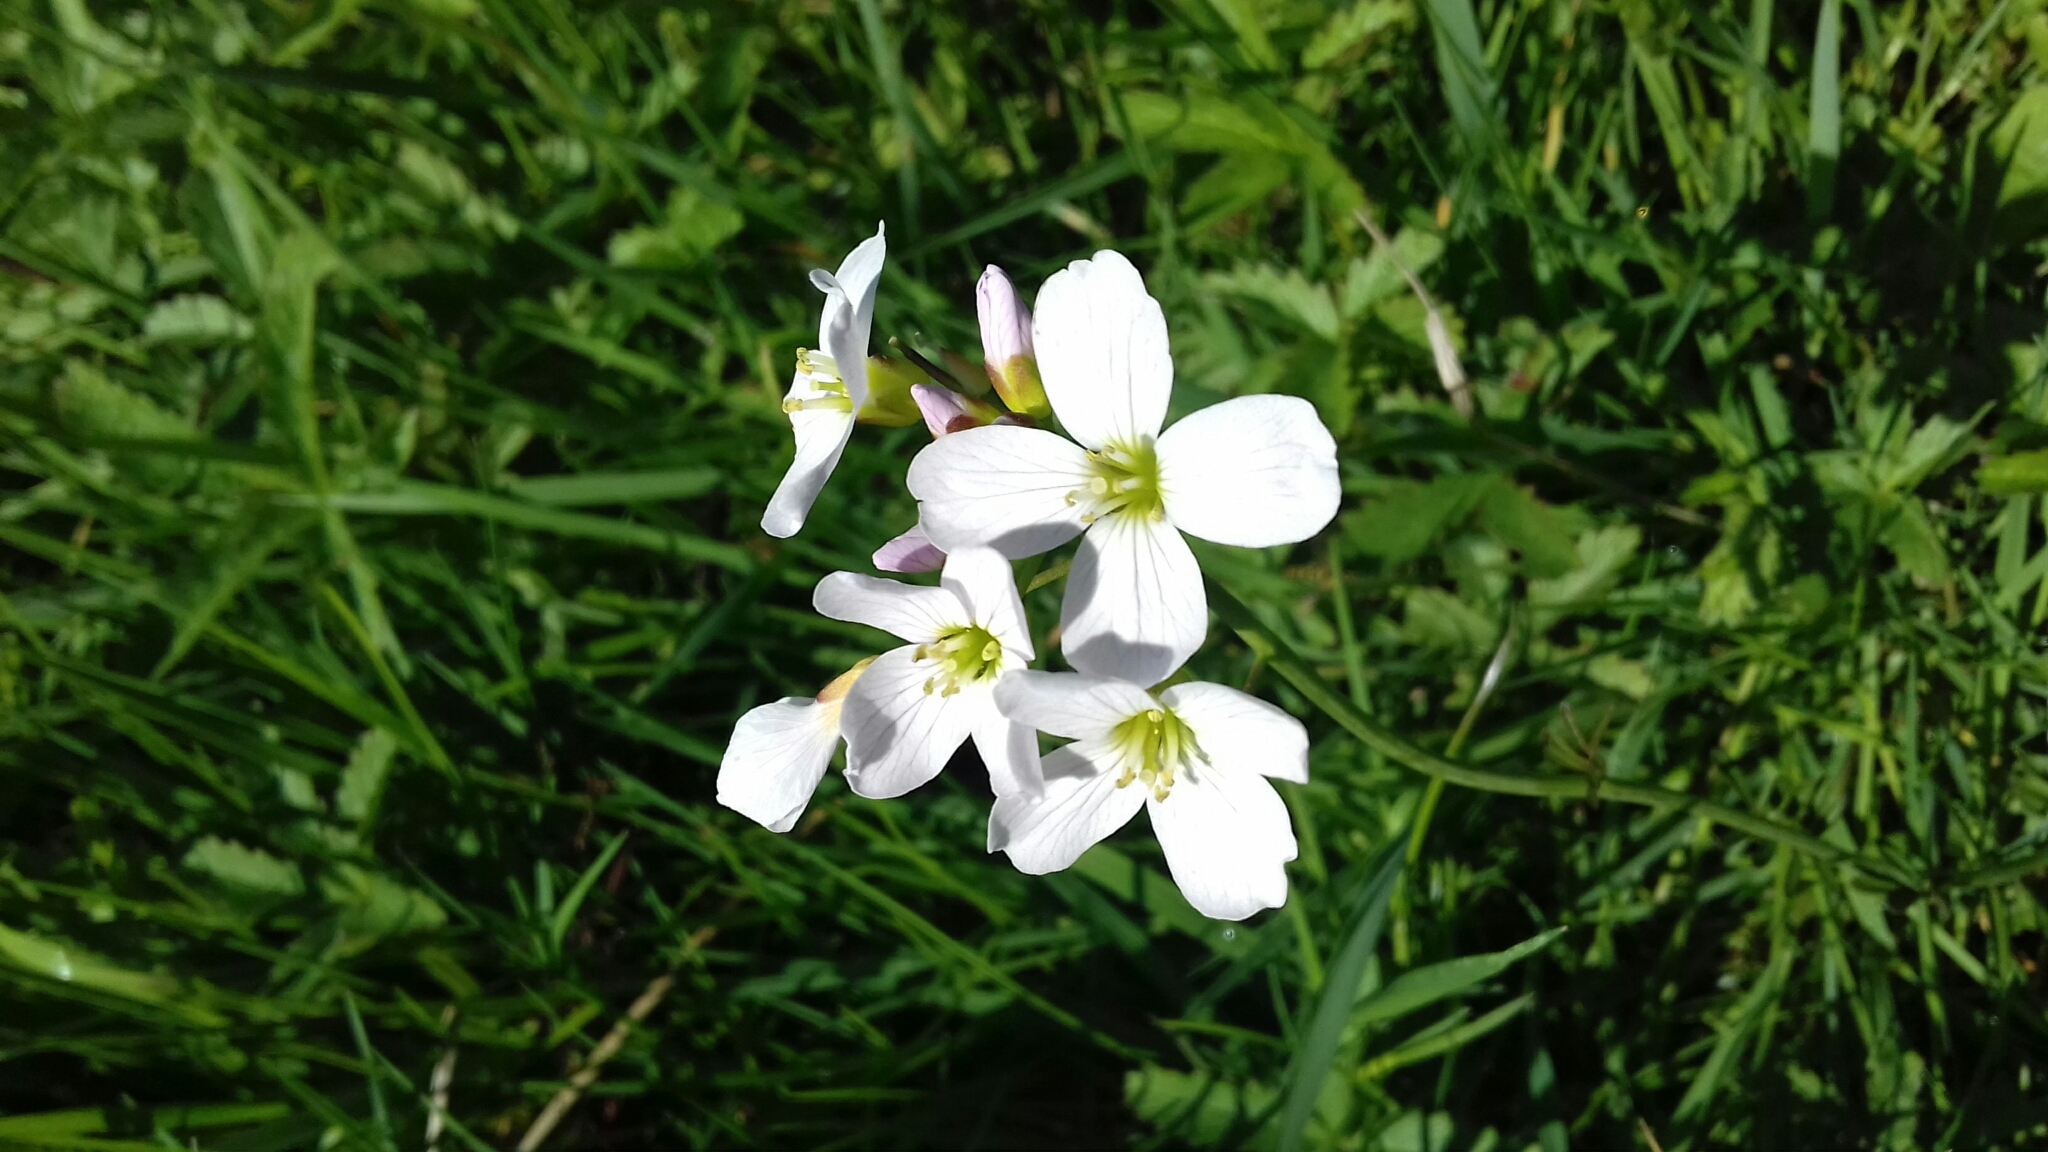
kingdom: Plantae
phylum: Tracheophyta
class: Magnoliopsida
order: Brassicales
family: Brassicaceae
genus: Cardamine
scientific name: Cardamine pratensis
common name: Cuckoo flower
